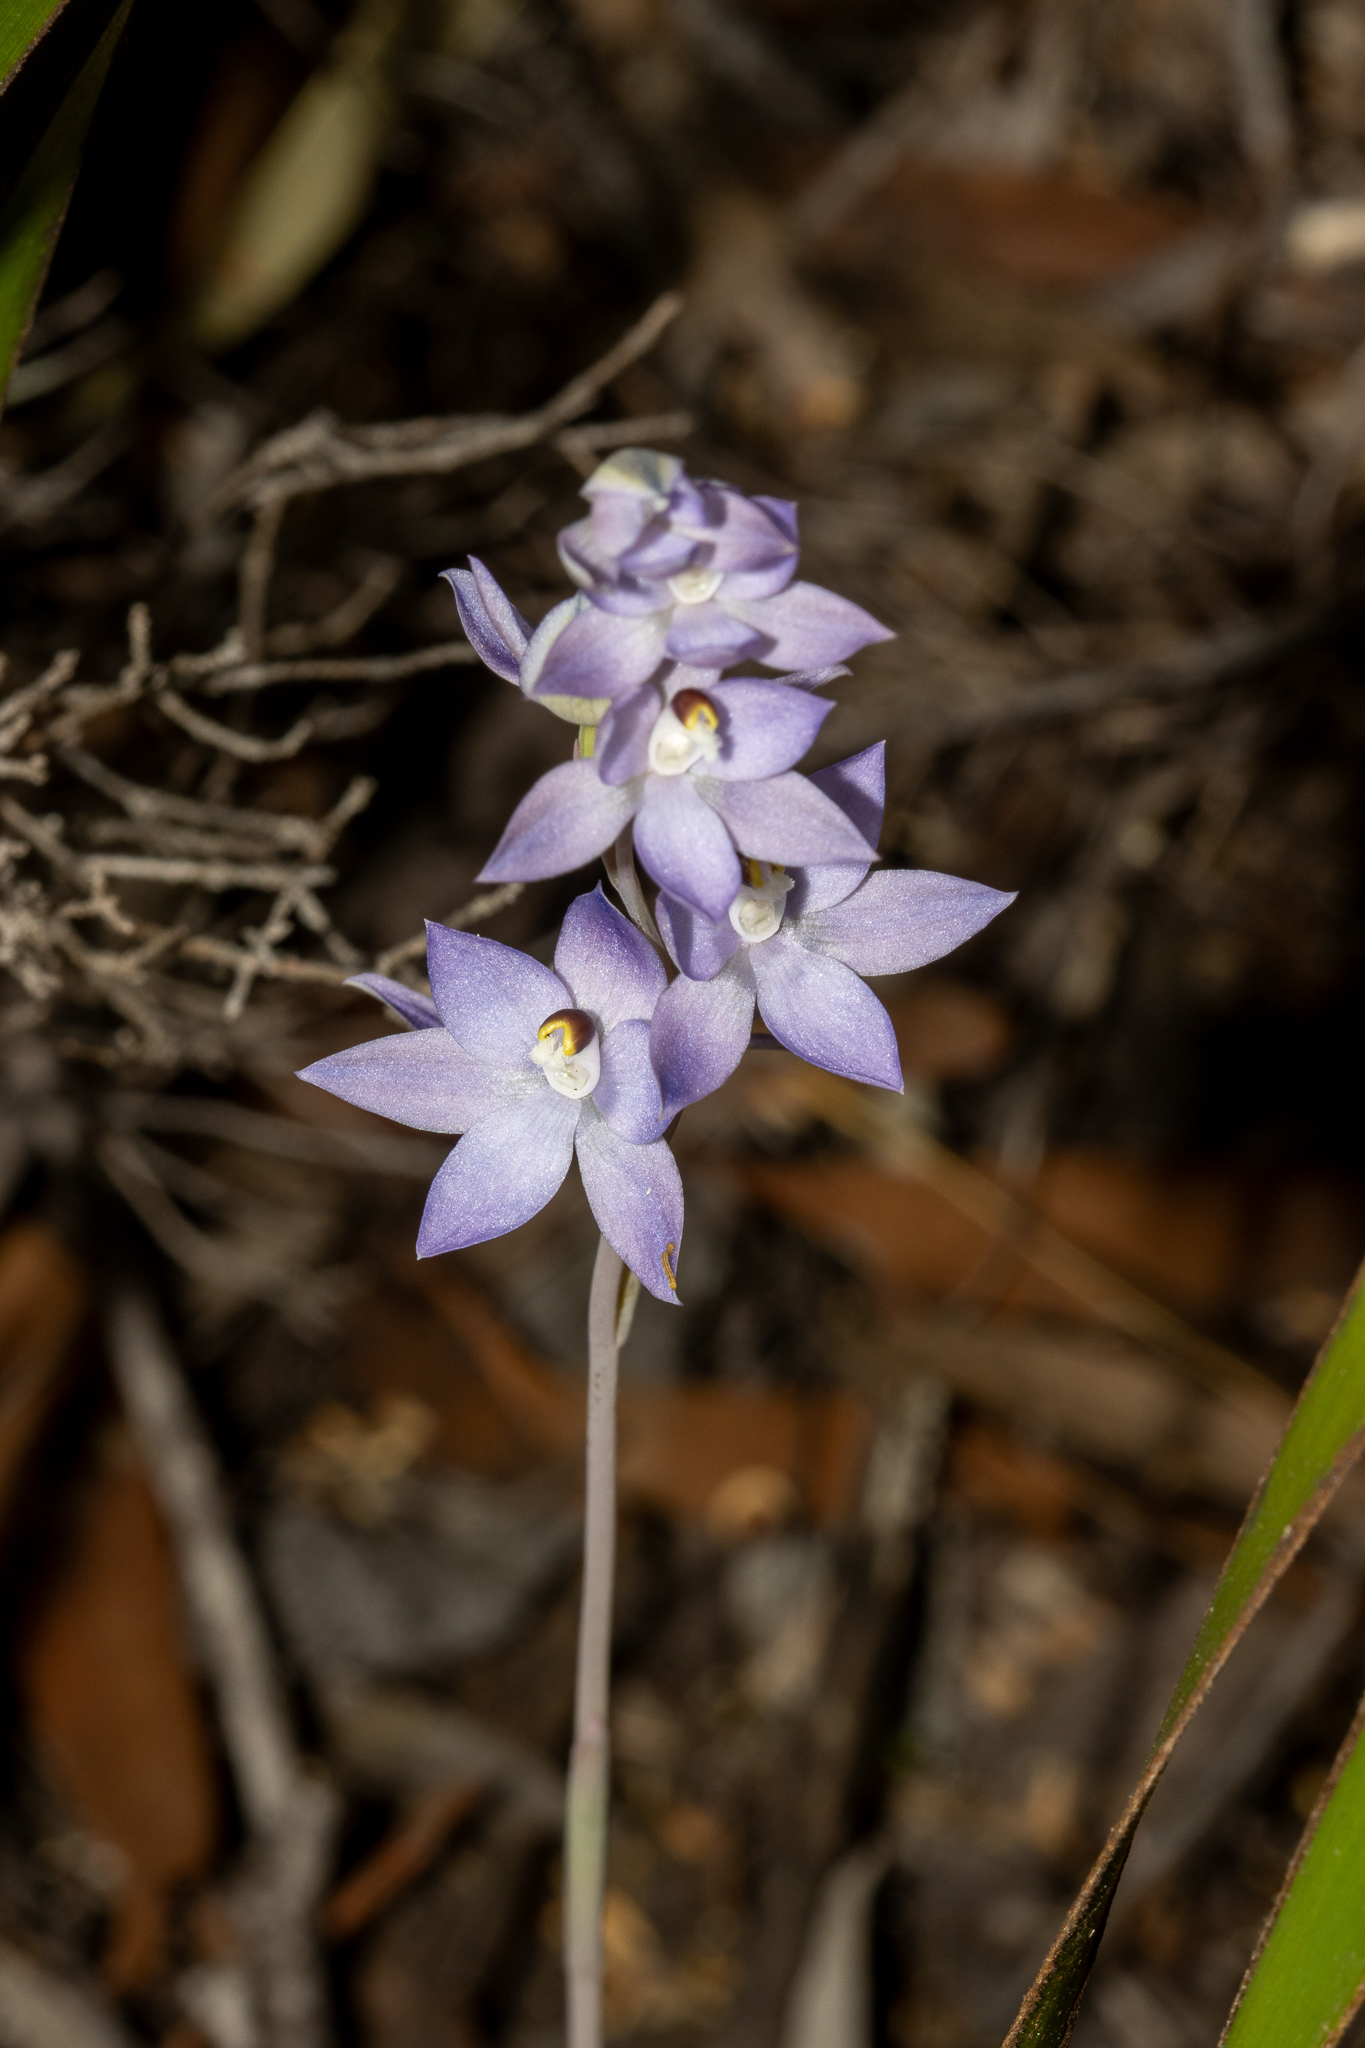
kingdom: Plantae
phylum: Tracheophyta
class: Liliopsida
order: Asparagales
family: Orchidaceae
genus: Thelymitra
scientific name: Thelymitra alcockiae
